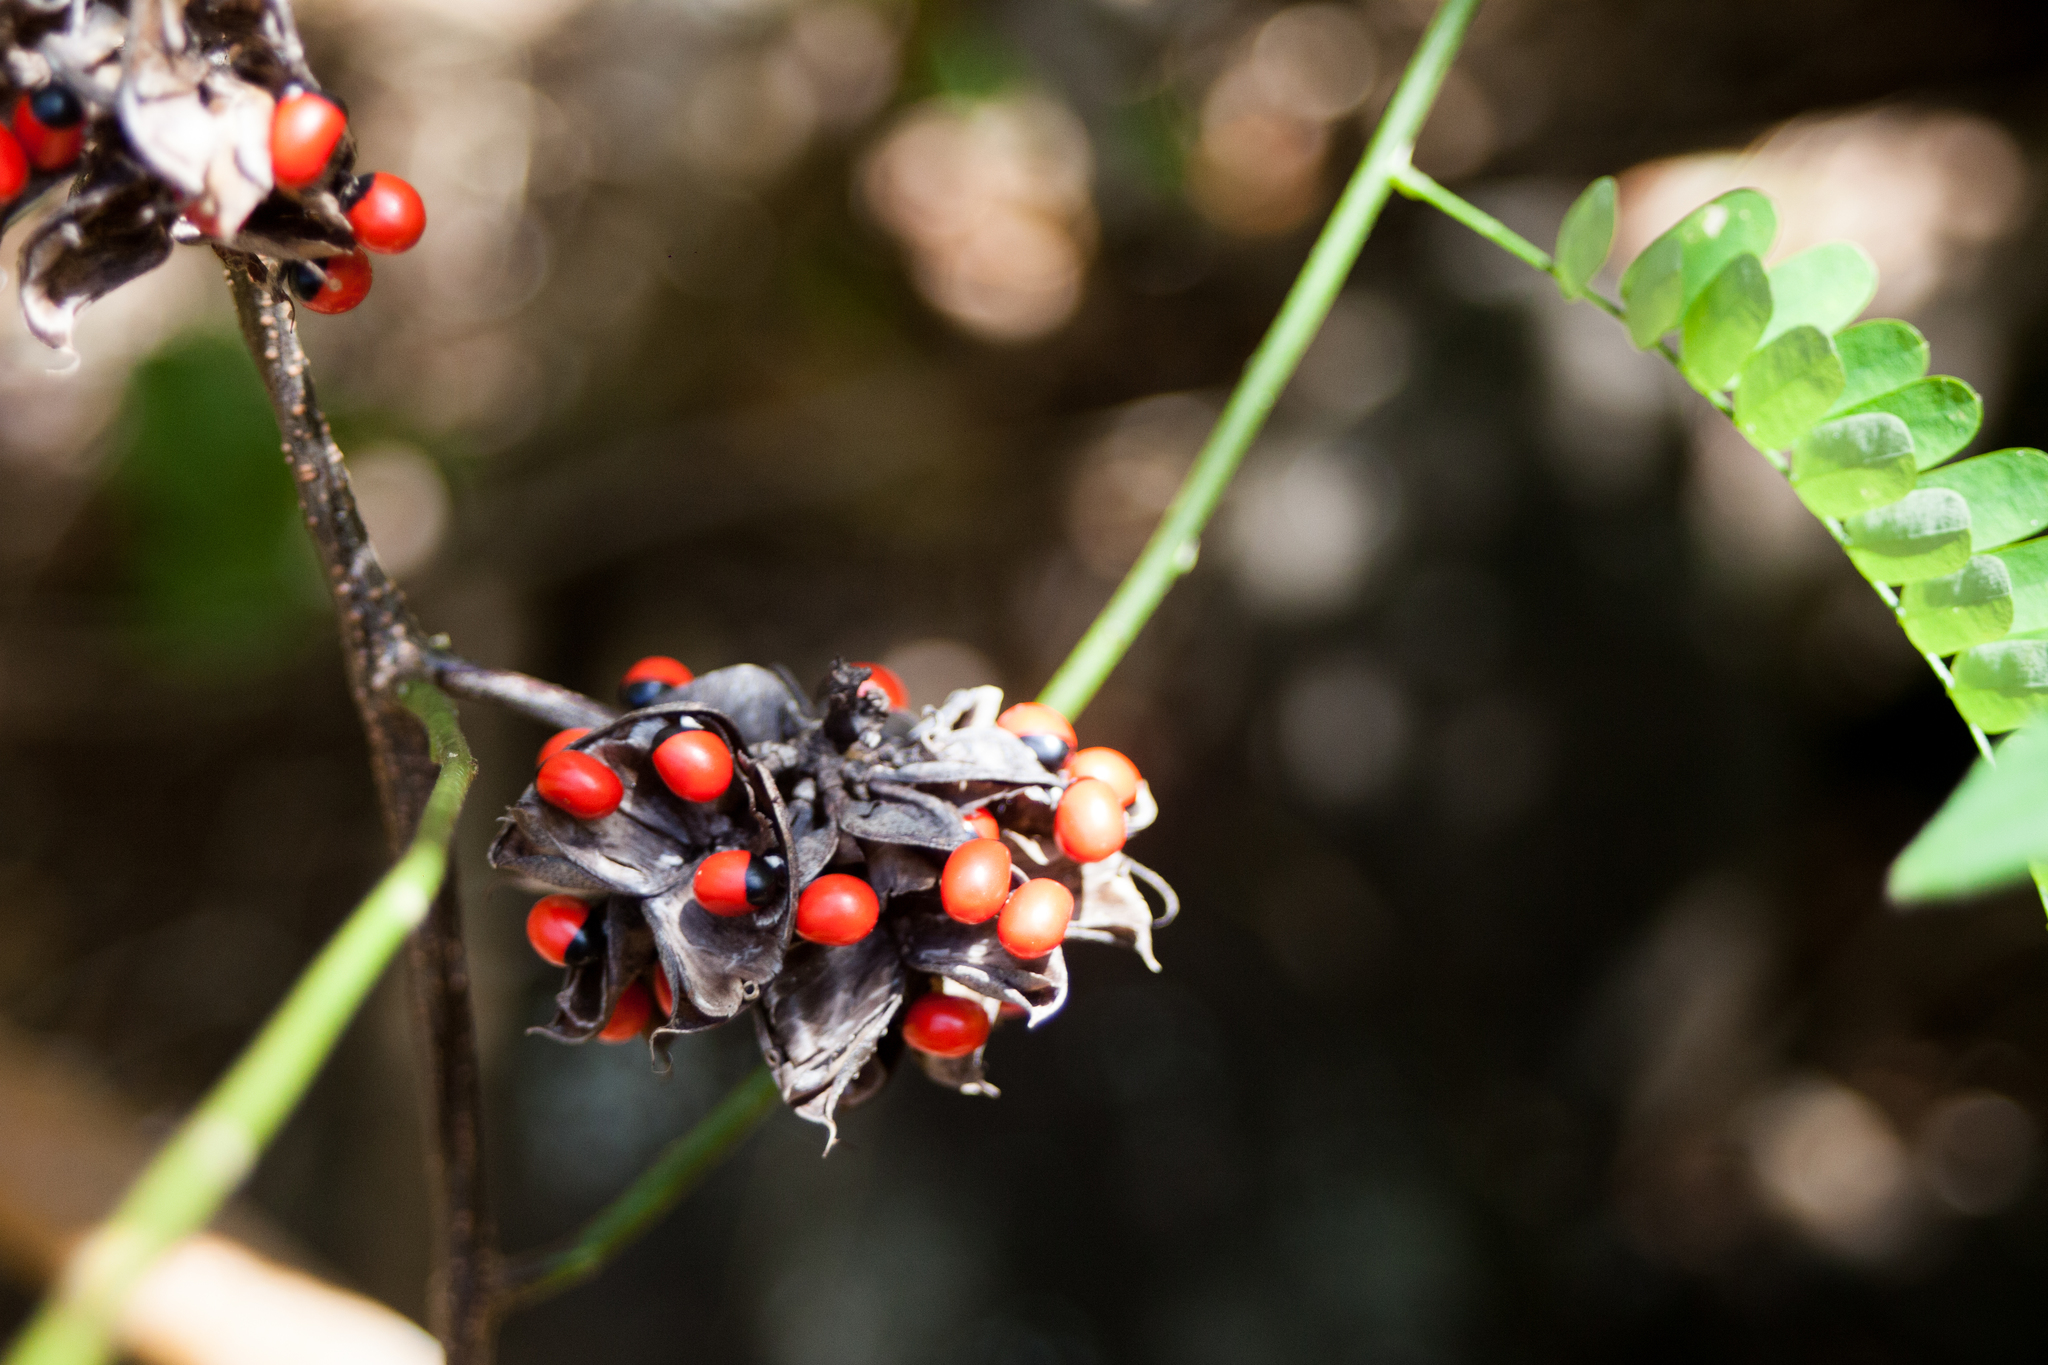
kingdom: Plantae
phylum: Tracheophyta
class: Magnoliopsida
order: Fabales
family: Fabaceae
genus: Abrus
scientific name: Abrus precatorius
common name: Rosarypea
